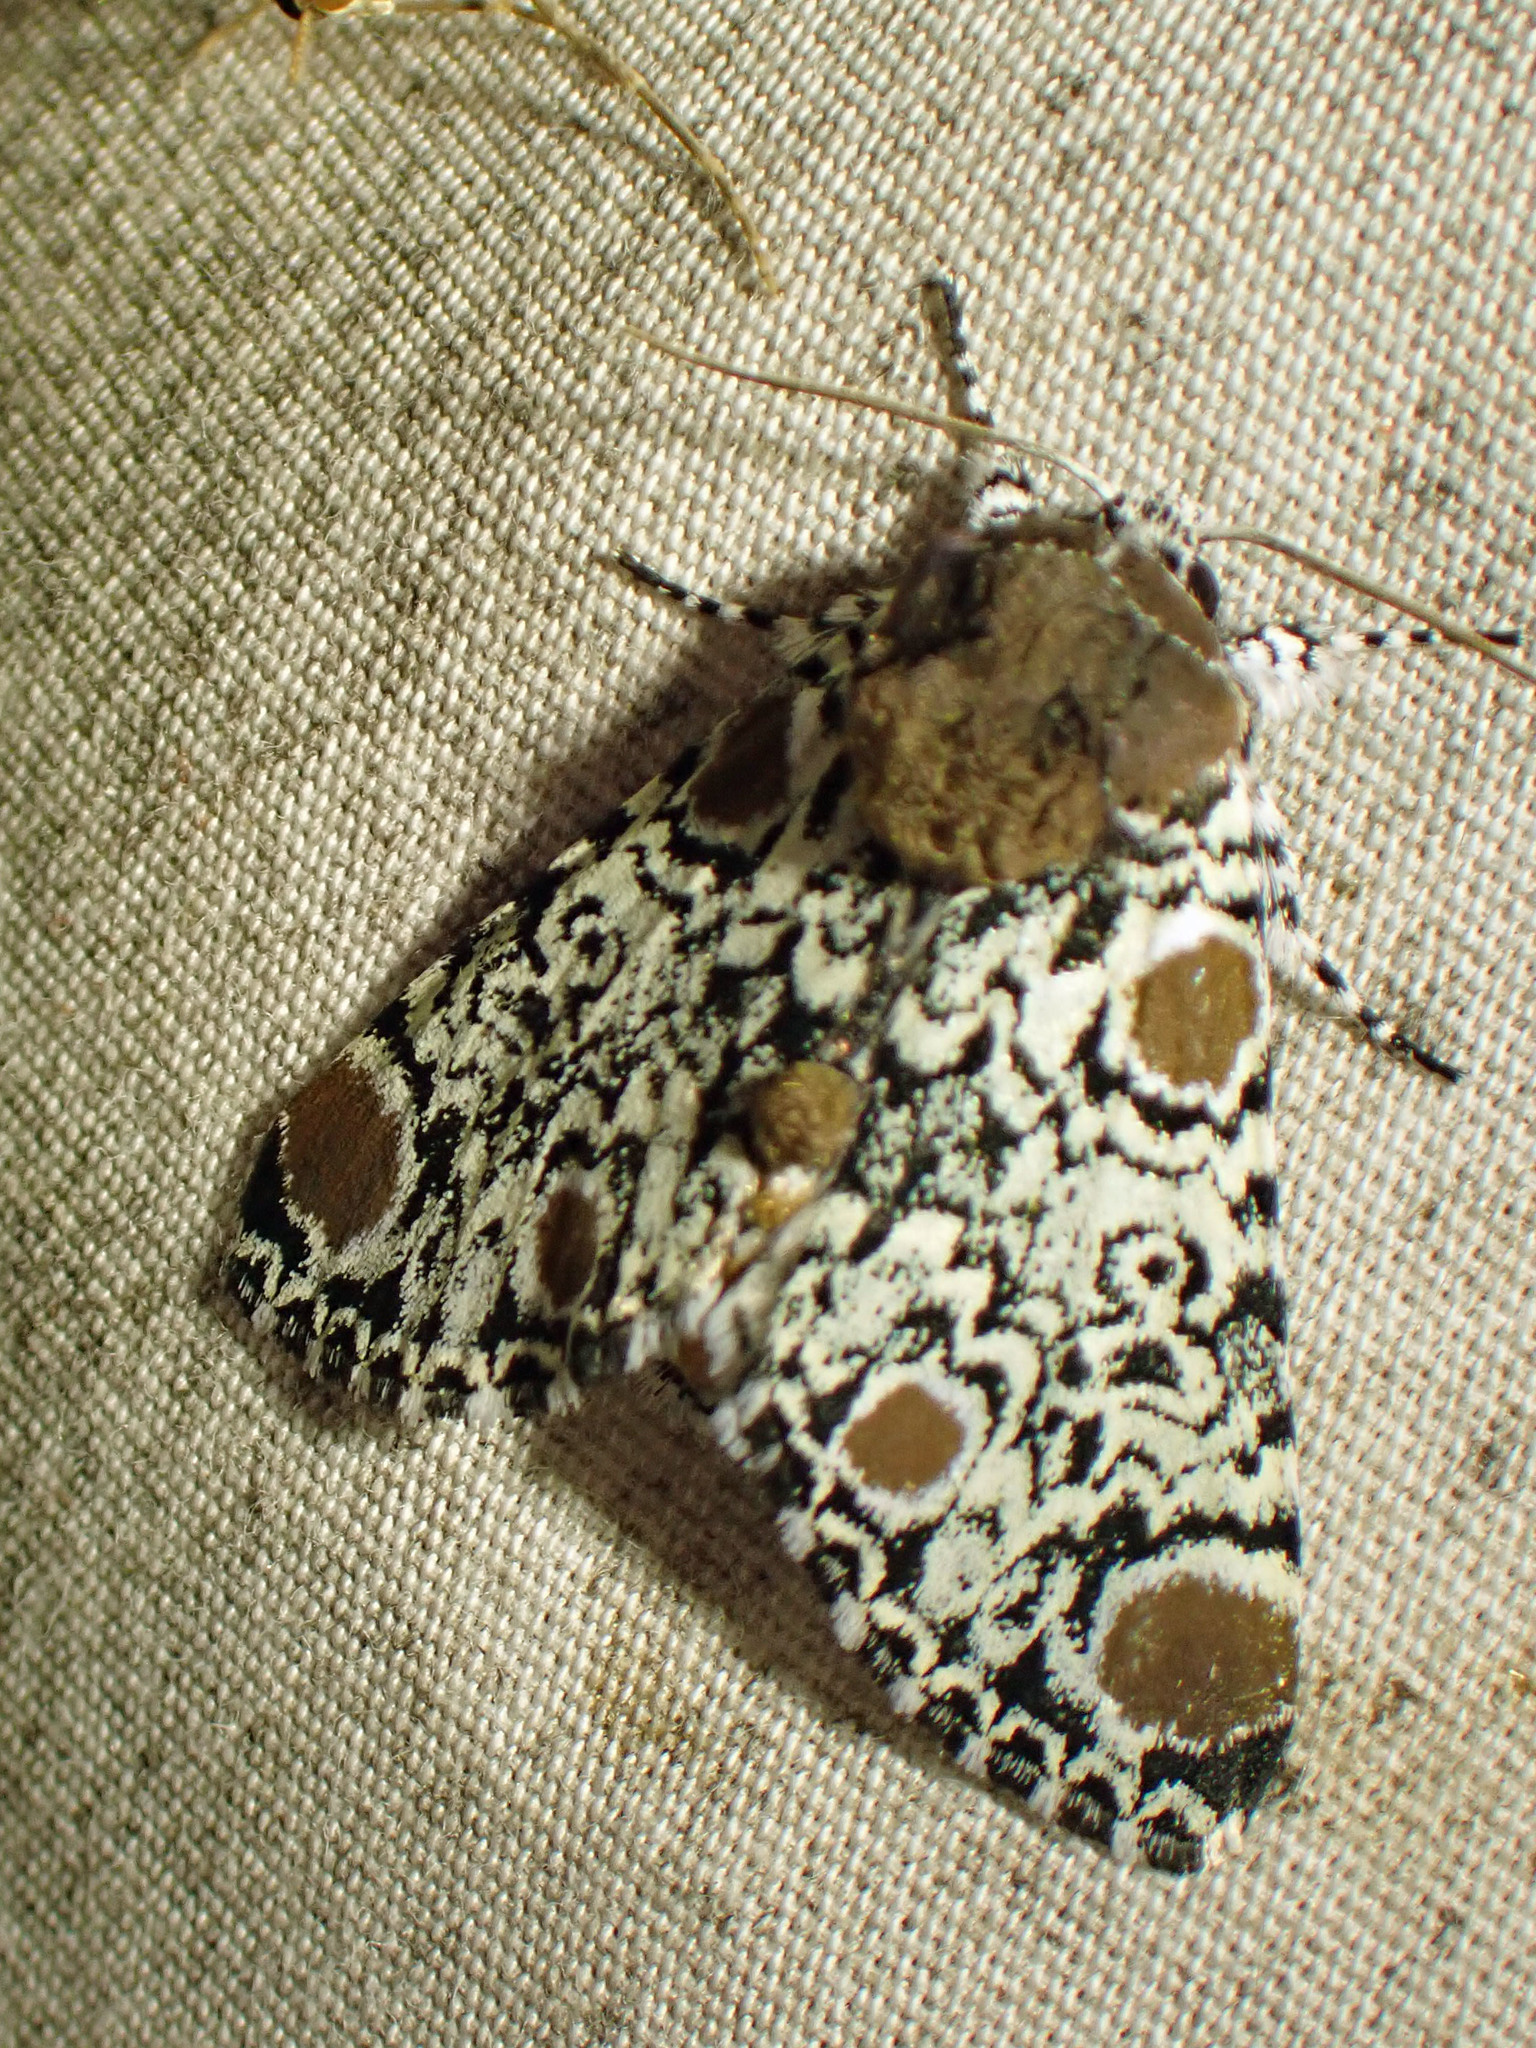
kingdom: Animalia
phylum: Arthropoda
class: Insecta
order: Lepidoptera
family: Noctuidae
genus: Harrisimemna
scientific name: Harrisimemna trisignata
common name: Harris threespot
